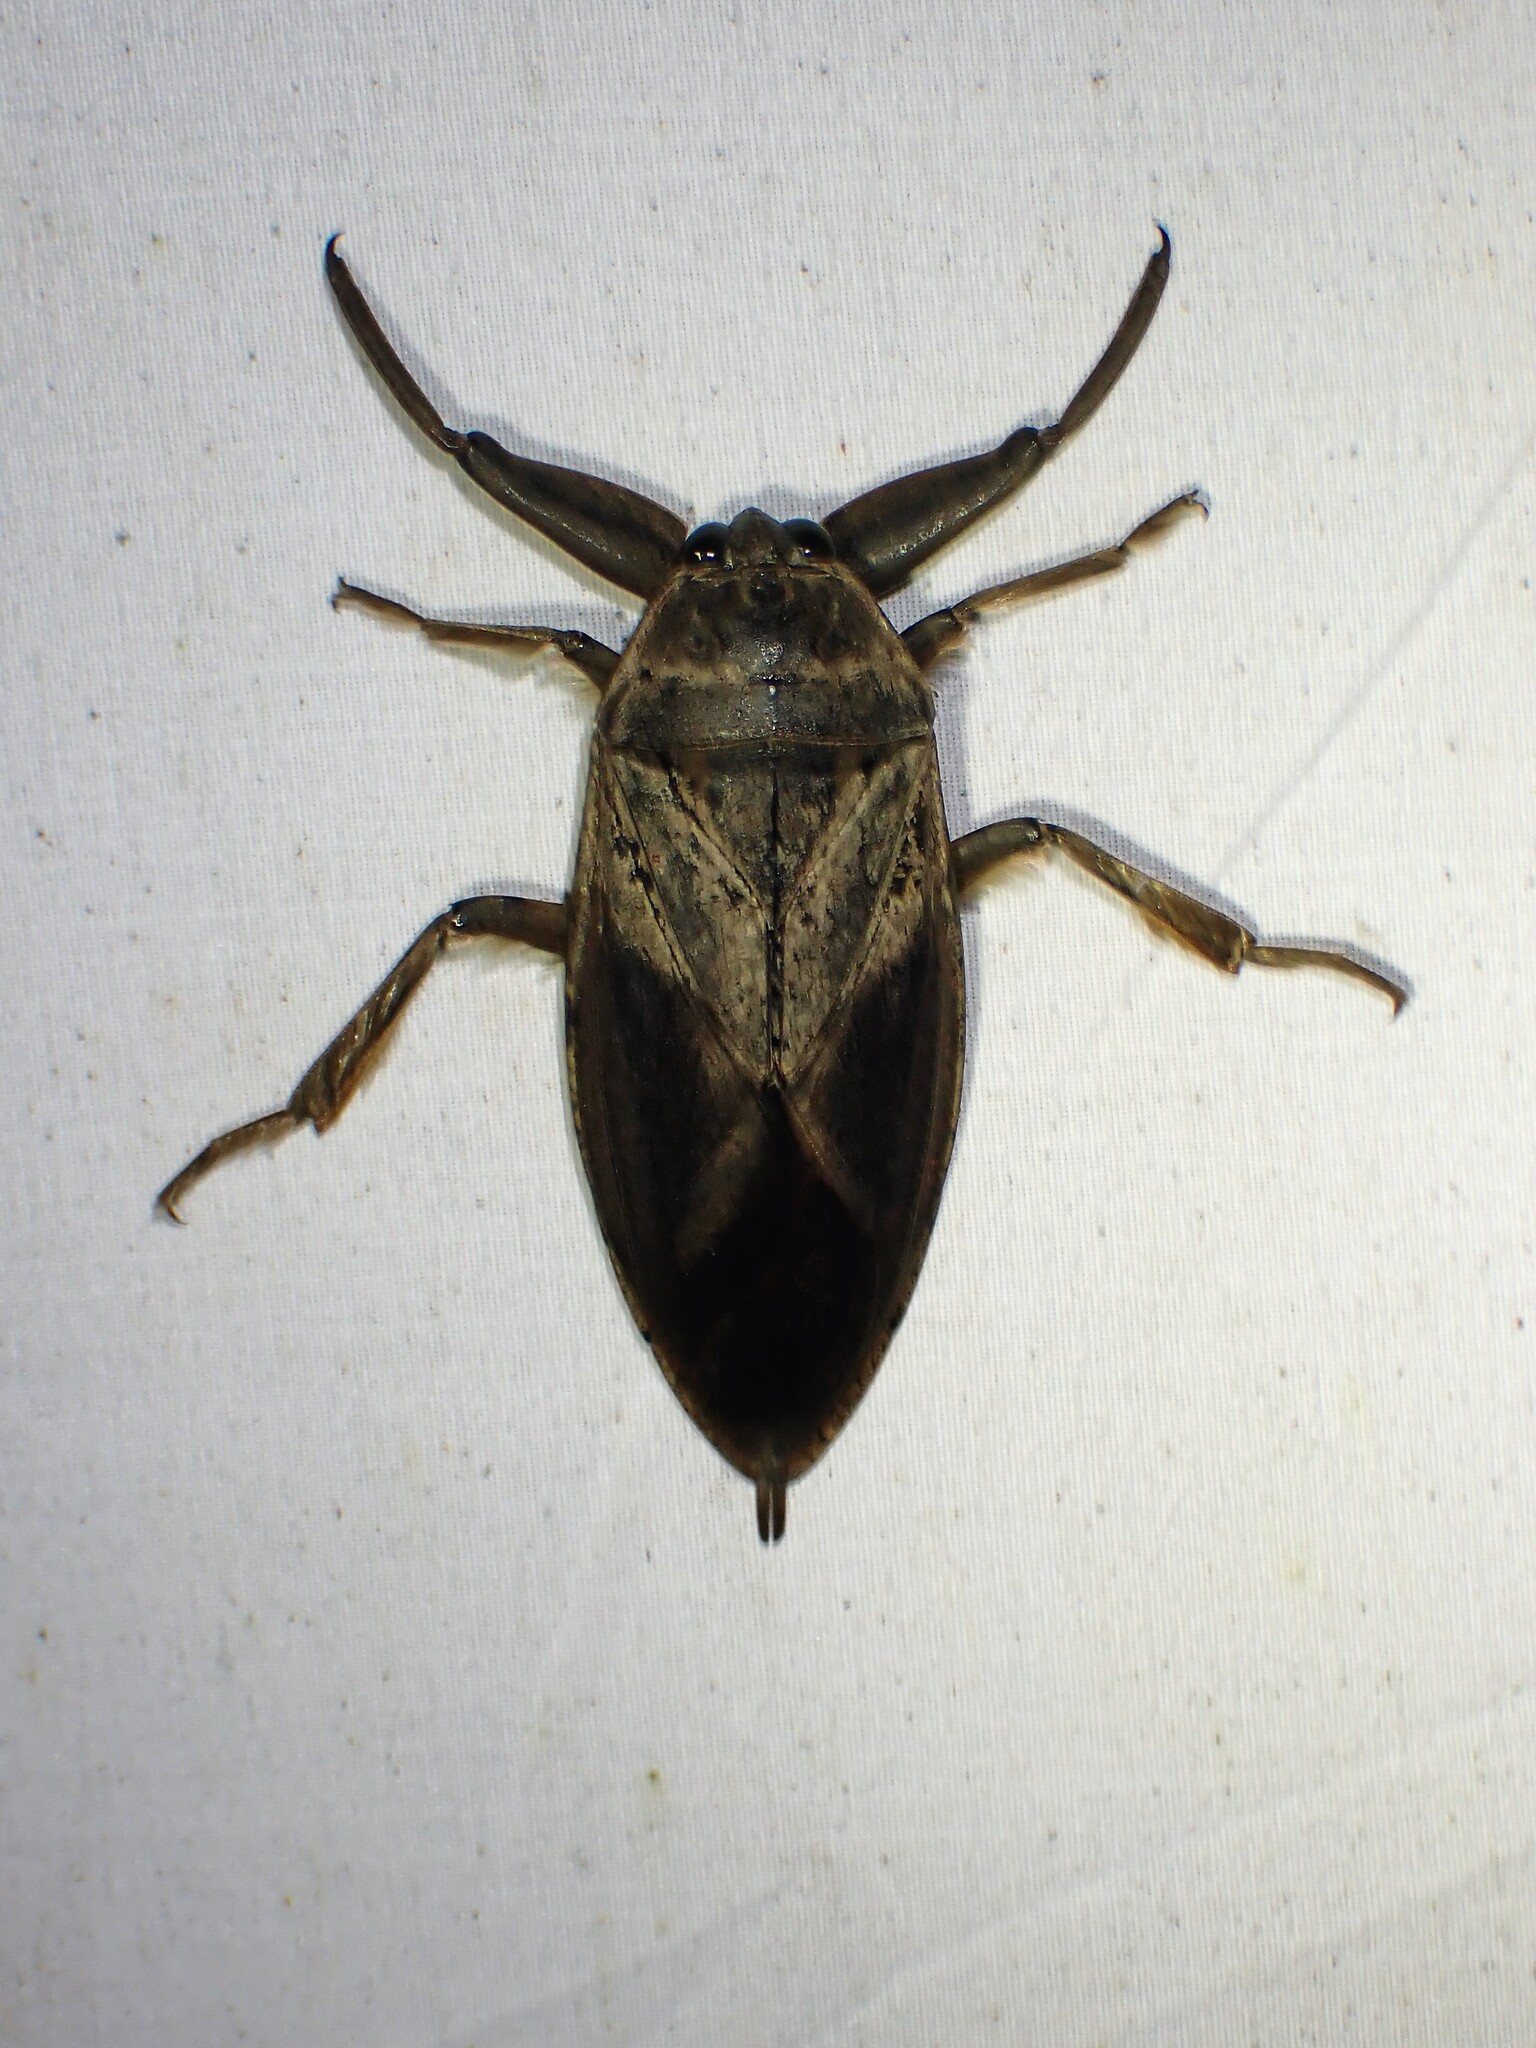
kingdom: Animalia
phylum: Arthropoda
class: Insecta
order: Hemiptera
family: Belostomatidae
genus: Lethocerus
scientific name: Lethocerus americanus
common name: Giant water bug
